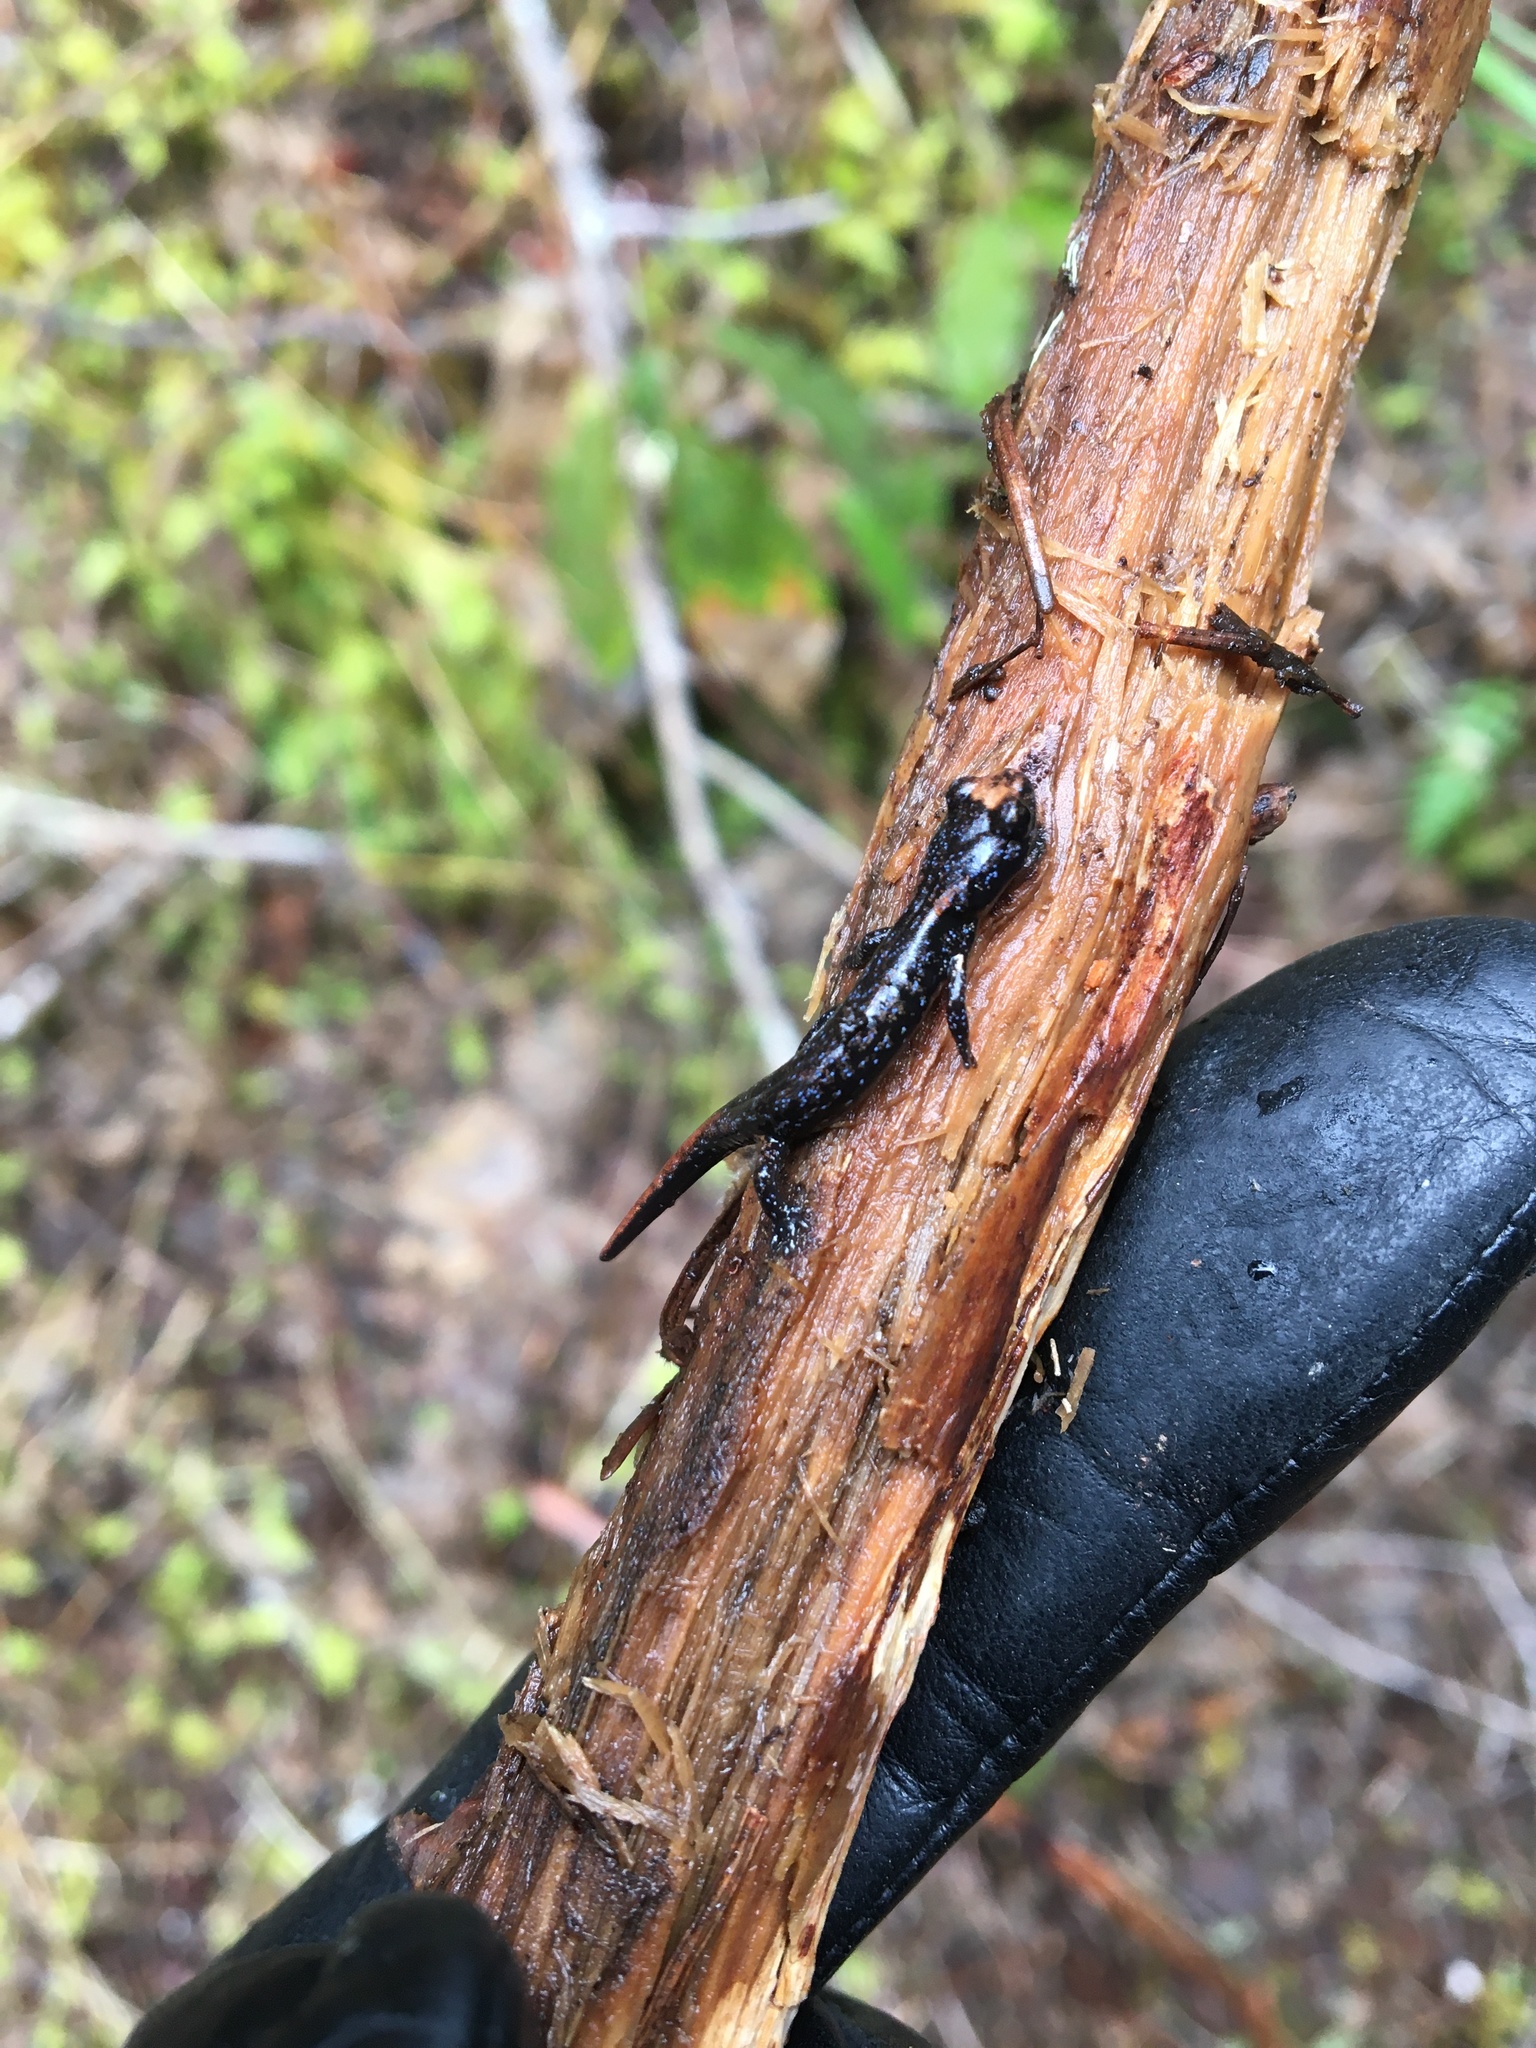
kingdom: Animalia
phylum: Chordata
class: Amphibia
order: Caudata
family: Plethodontidae
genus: Aneides
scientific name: Aneides ferreus
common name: Clouded salamander
